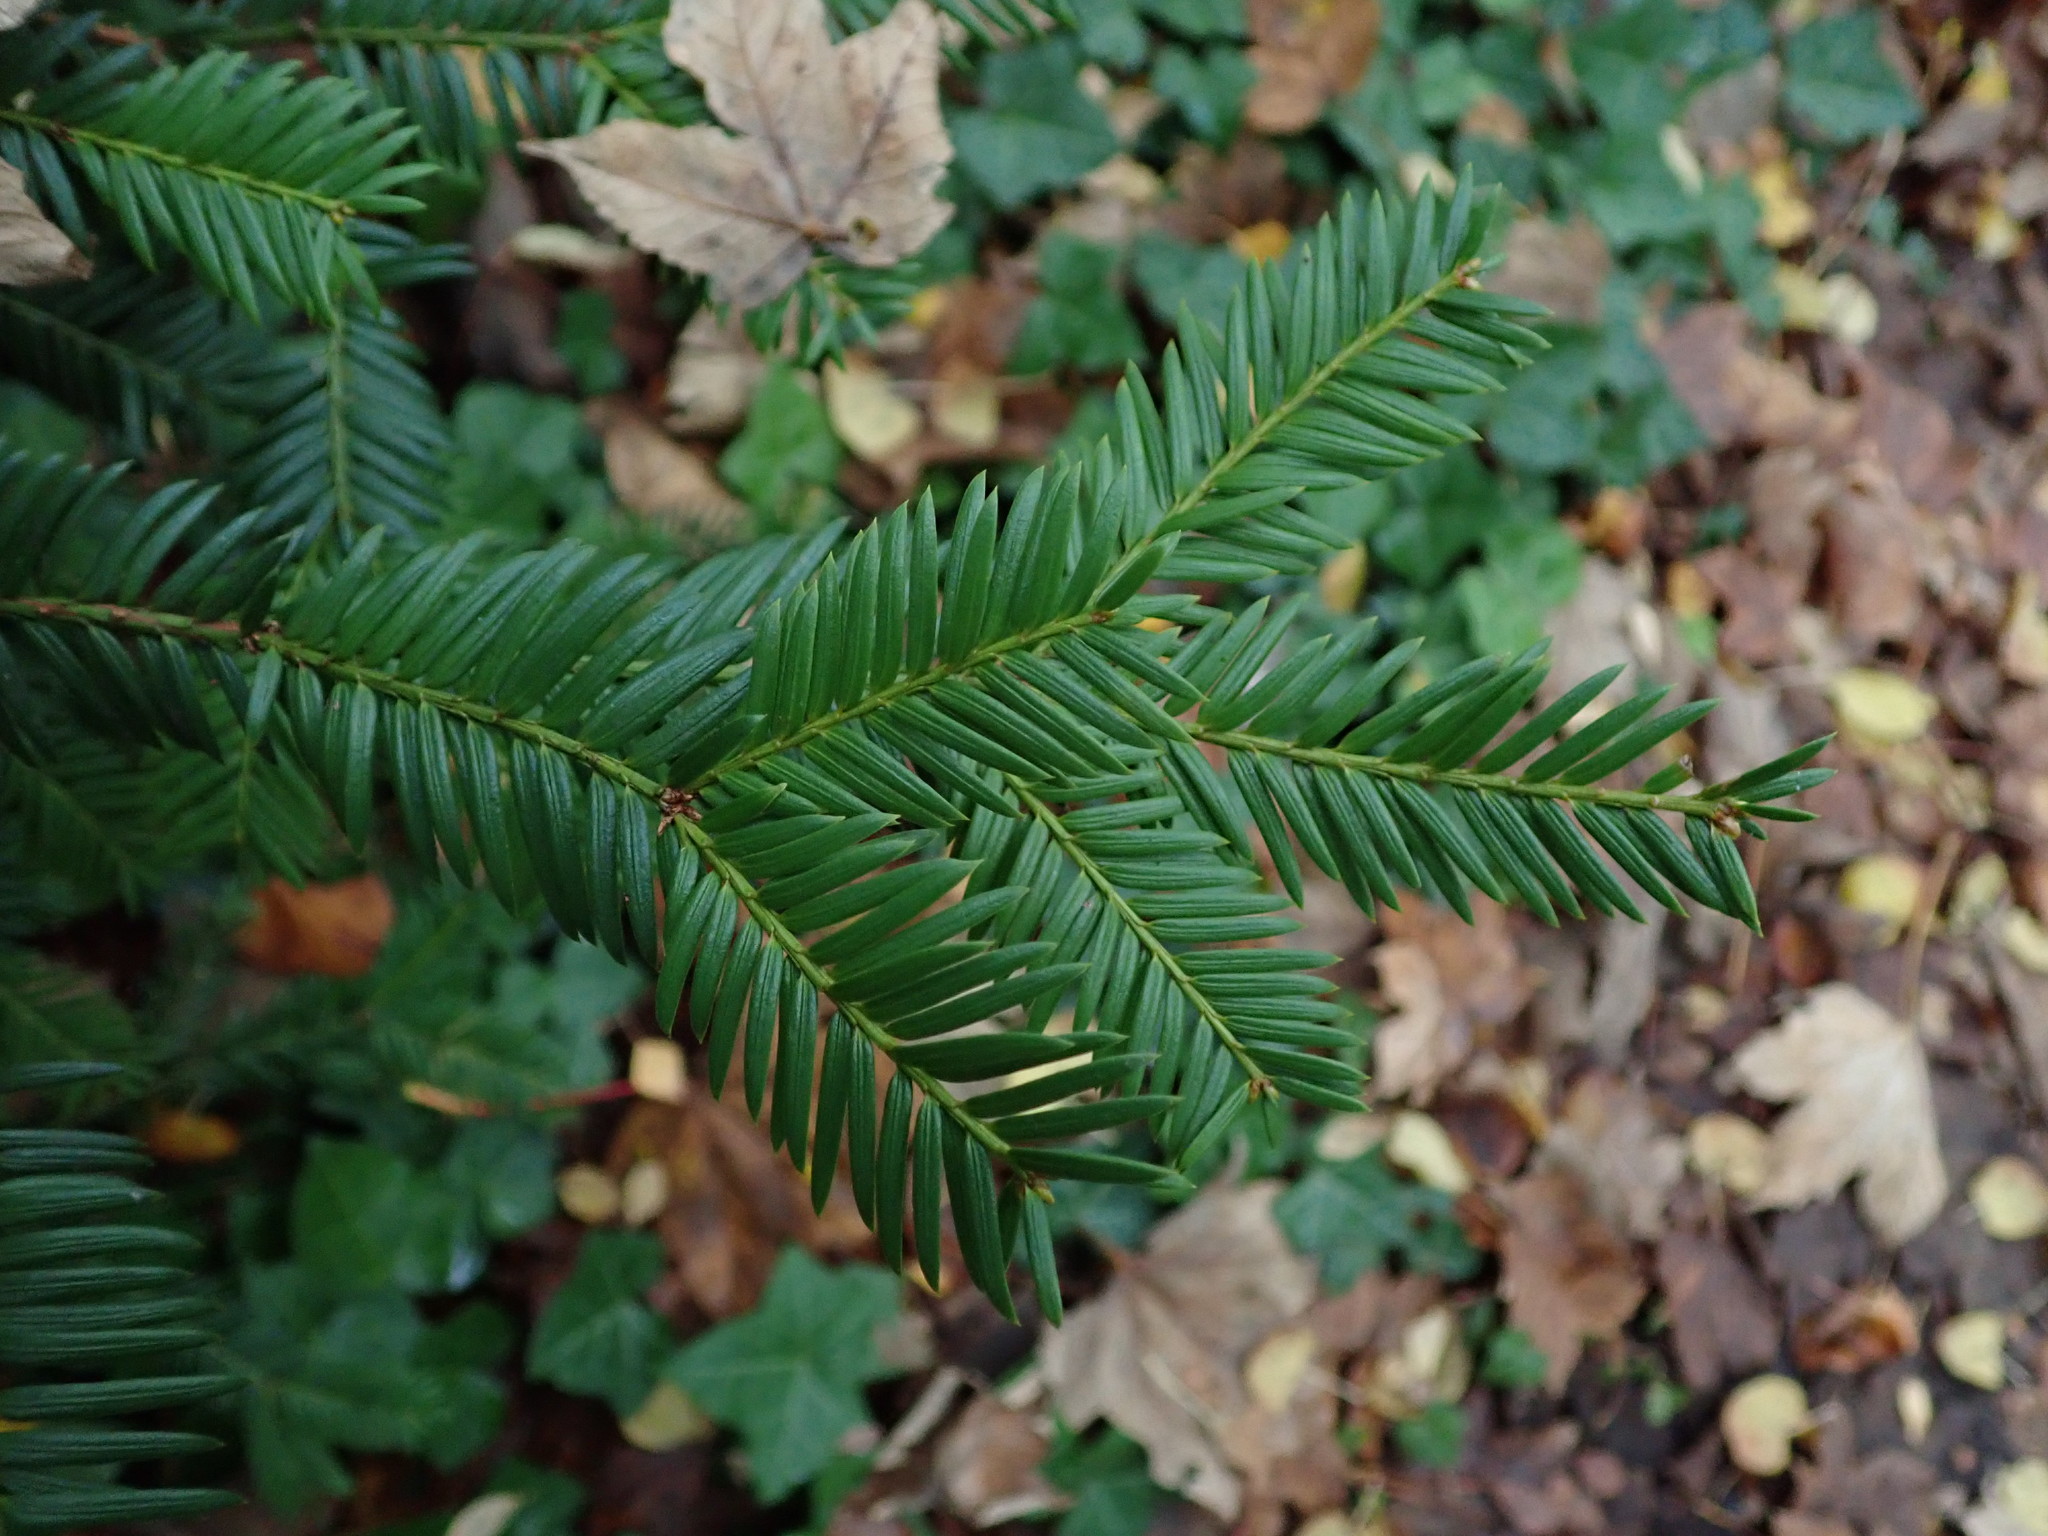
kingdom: Plantae
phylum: Tracheophyta
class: Pinopsida
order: Pinales
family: Taxaceae
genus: Taxus
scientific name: Taxus baccata
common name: Yew
